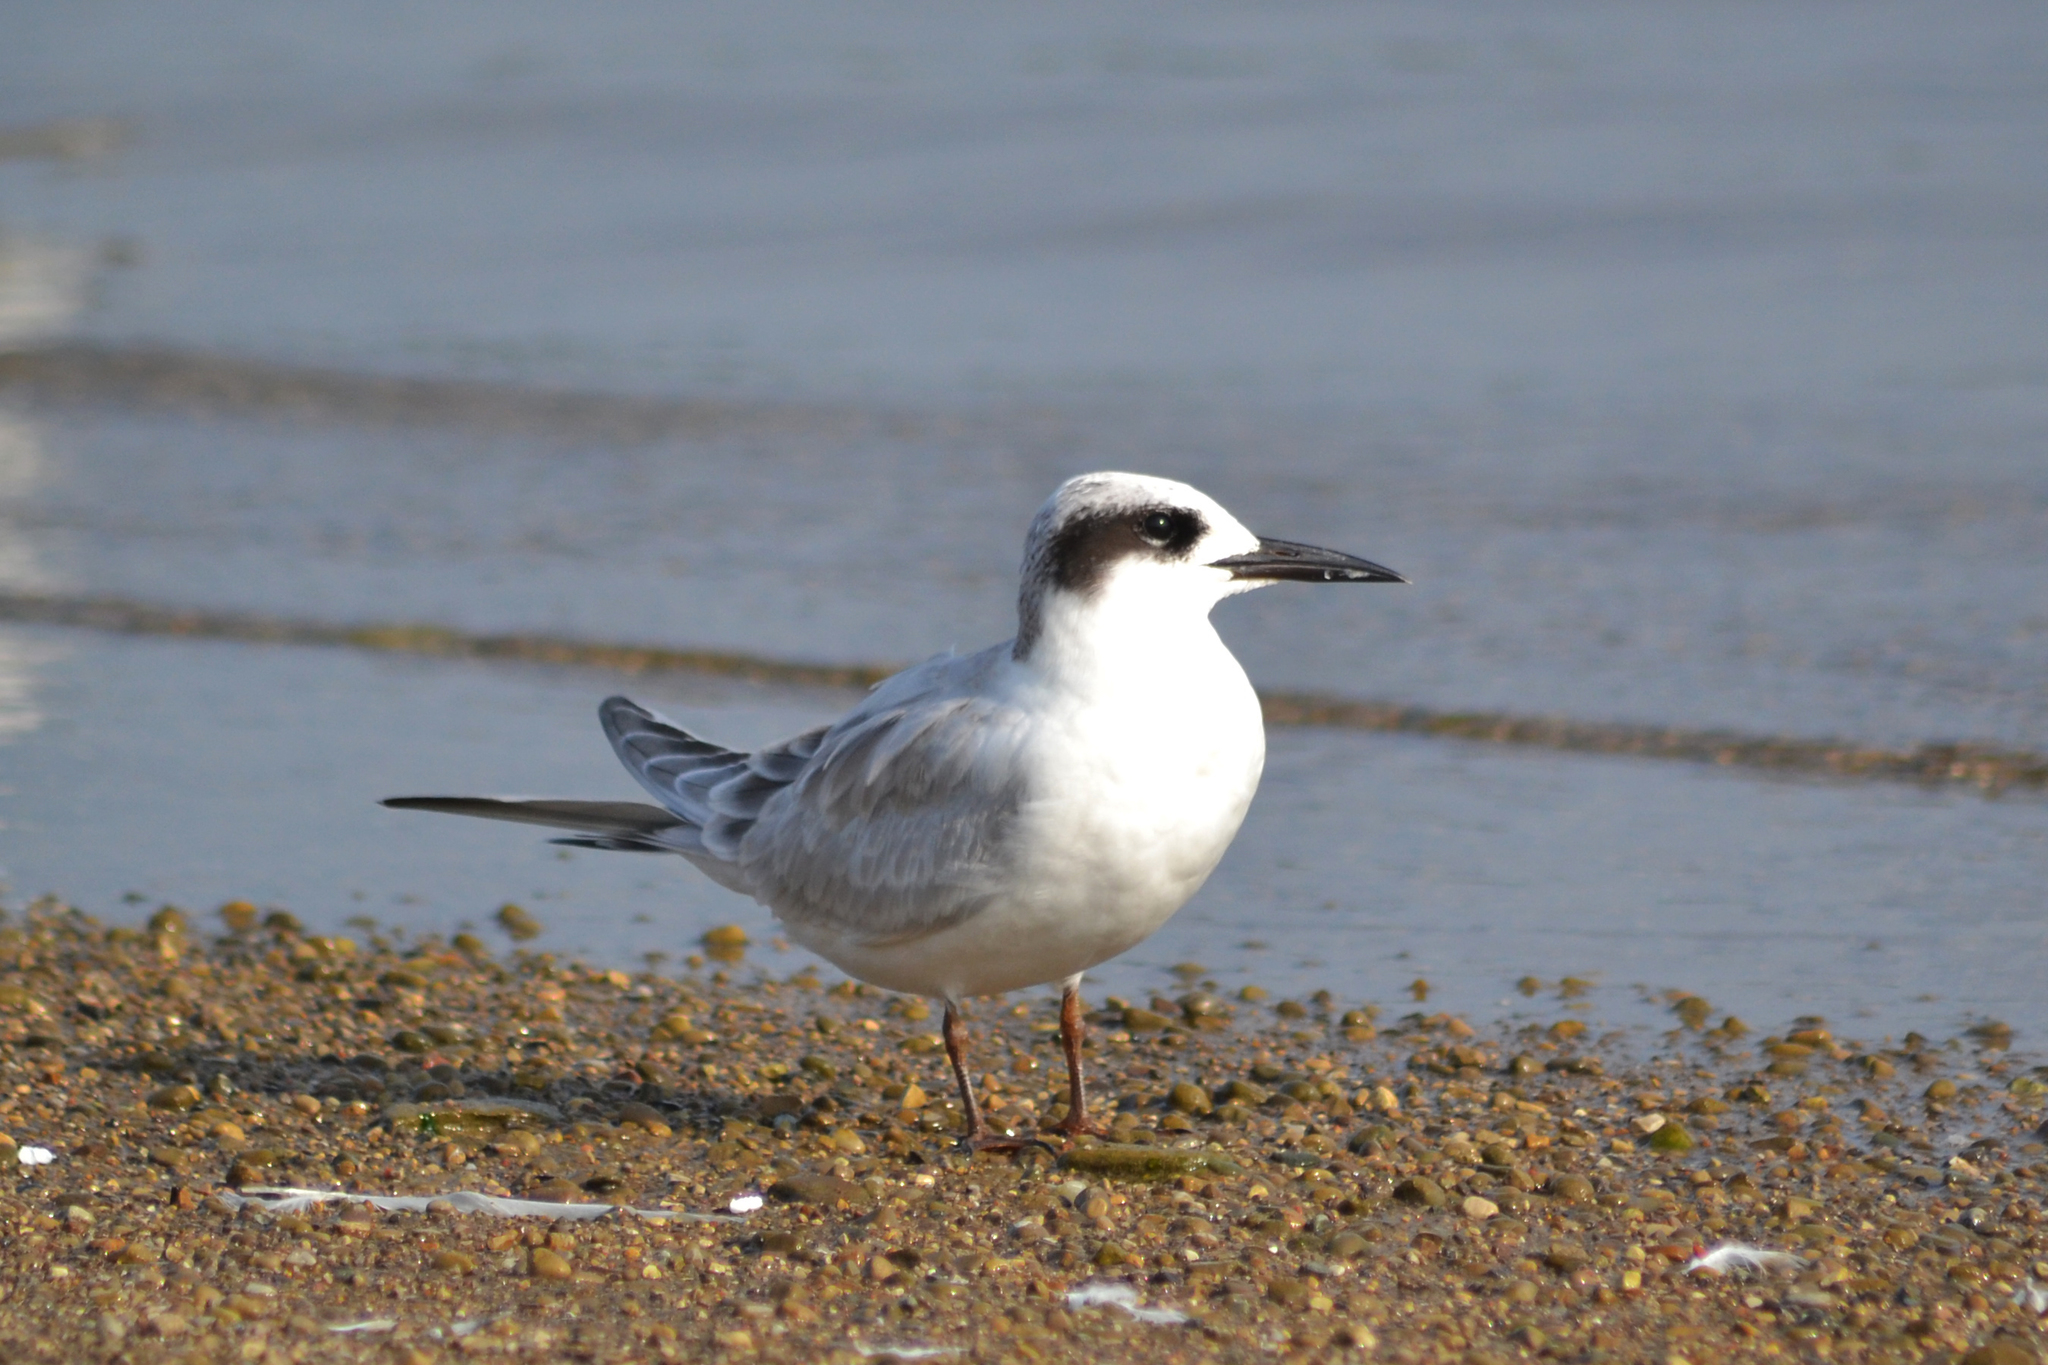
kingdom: Animalia
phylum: Chordata
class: Aves
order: Charadriiformes
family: Laridae
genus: Sterna
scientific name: Sterna forsteri
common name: Forster's tern
